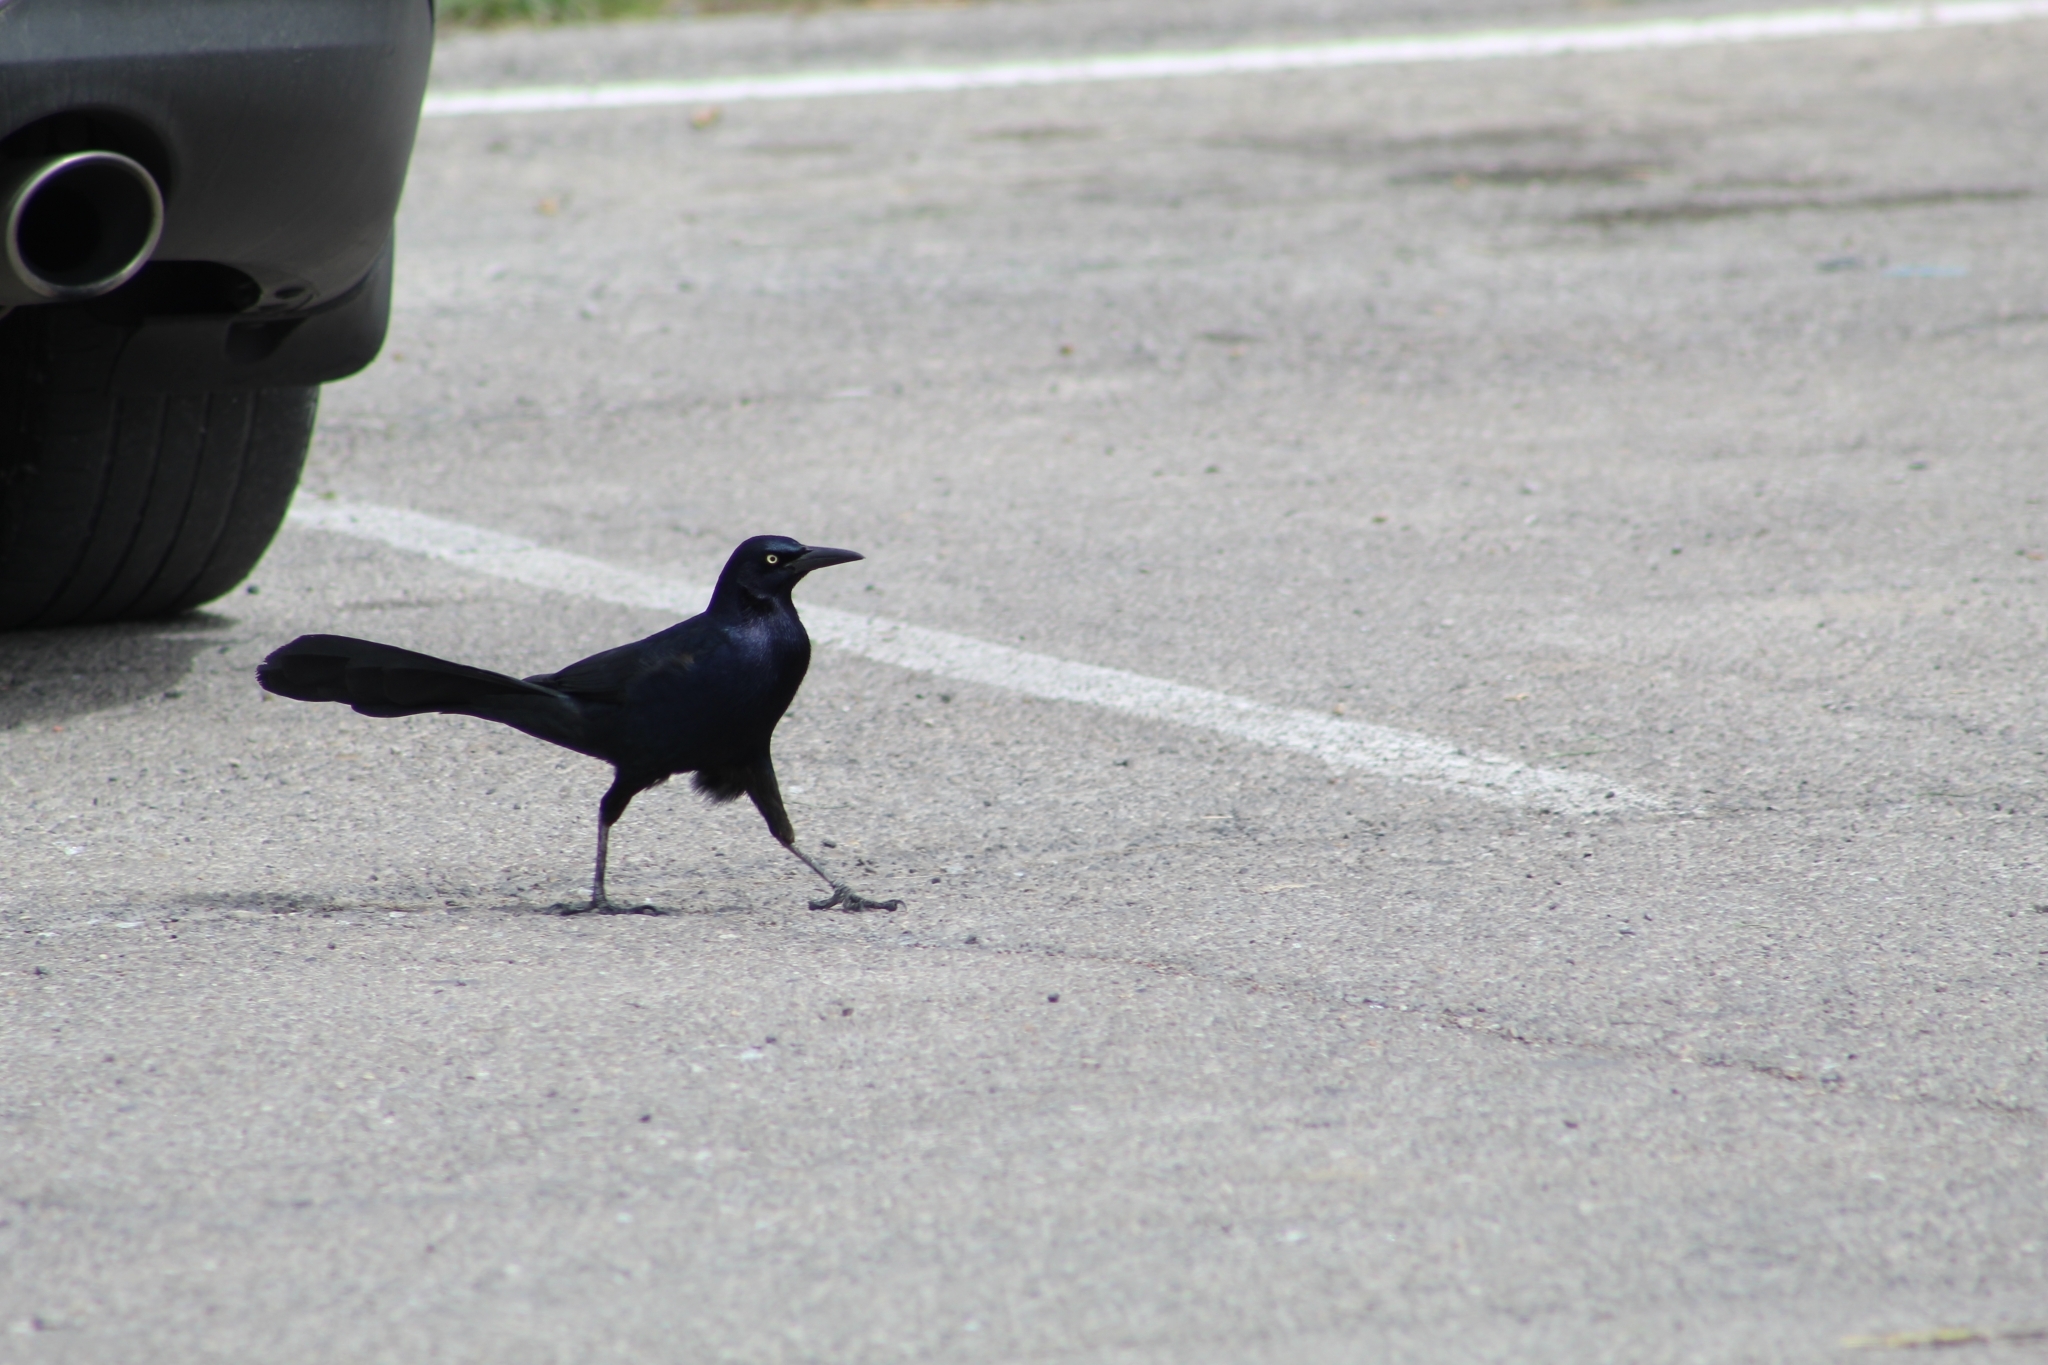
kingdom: Animalia
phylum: Chordata
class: Aves
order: Passeriformes
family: Icteridae
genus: Quiscalus
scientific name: Quiscalus mexicanus
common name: Great-tailed grackle
